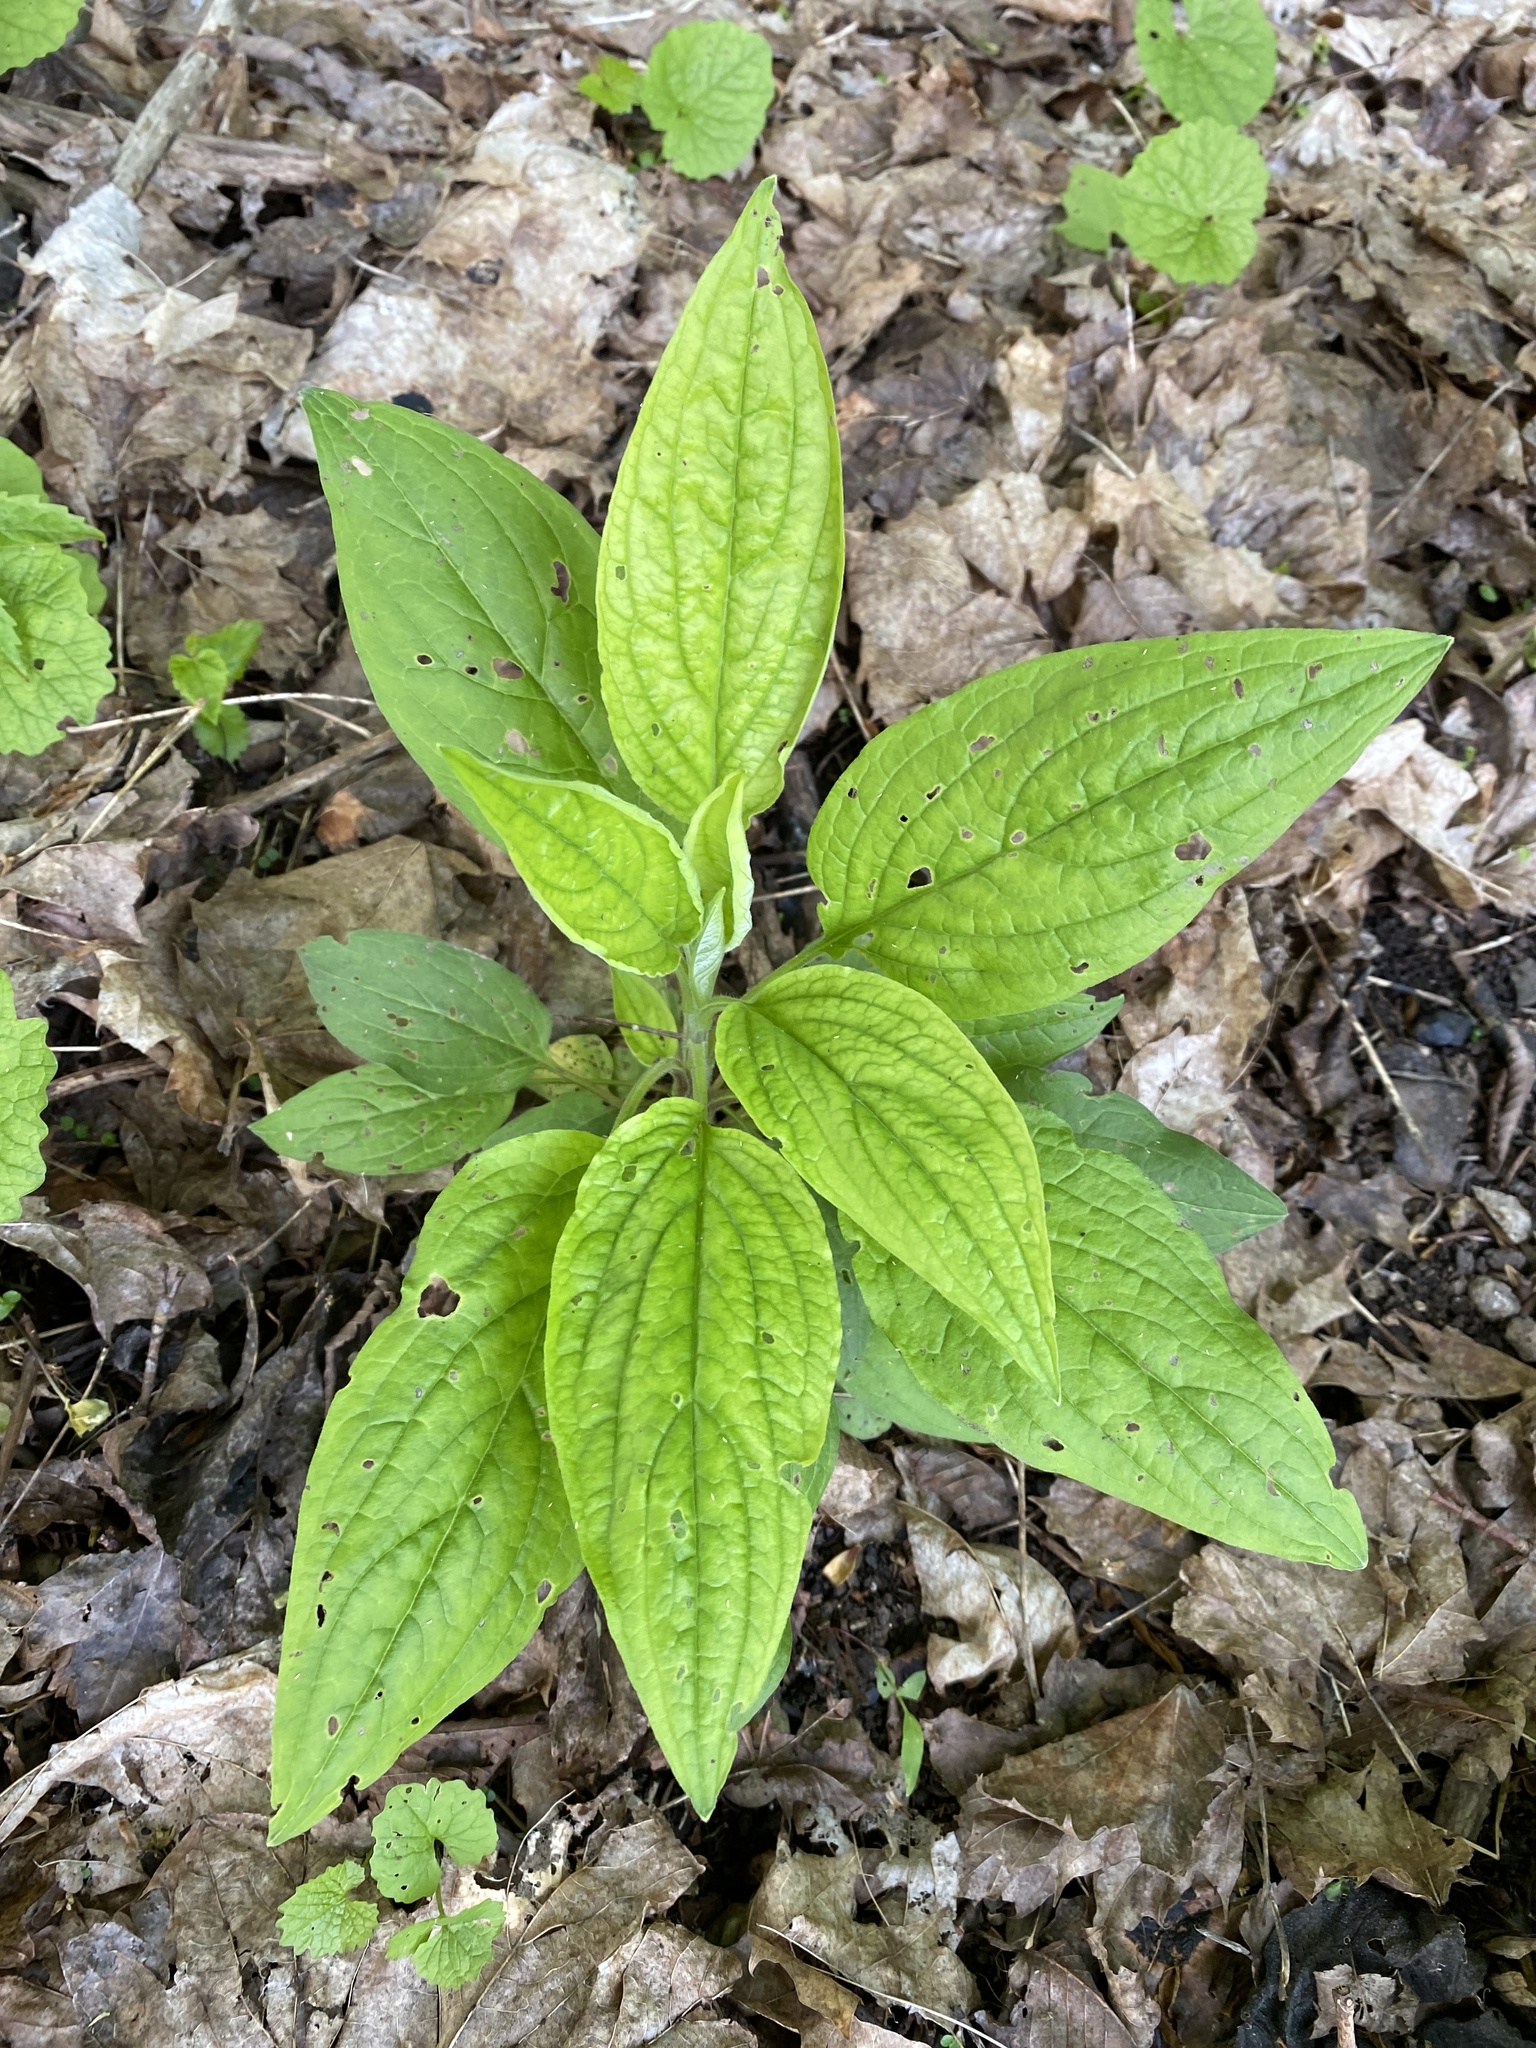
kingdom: Plantae
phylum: Tracheophyta
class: Magnoliopsida
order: Boraginales
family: Boraginaceae
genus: Hackelia
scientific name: Hackelia virginiana
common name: Beggar's-lice
